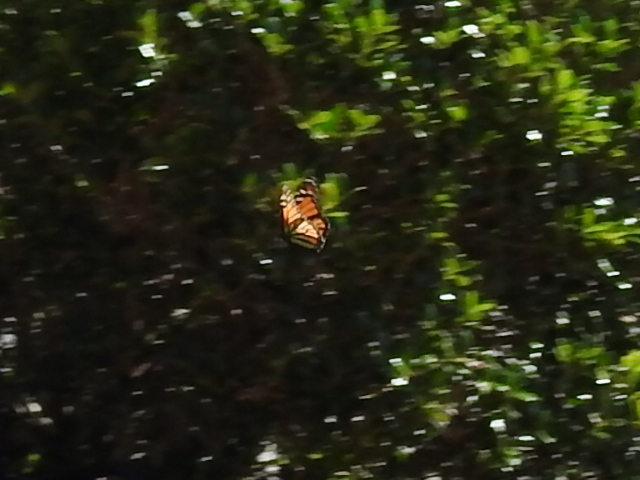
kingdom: Animalia
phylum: Arthropoda
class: Insecta
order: Lepidoptera
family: Nymphalidae
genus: Danaus
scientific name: Danaus plexippus
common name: Monarch
